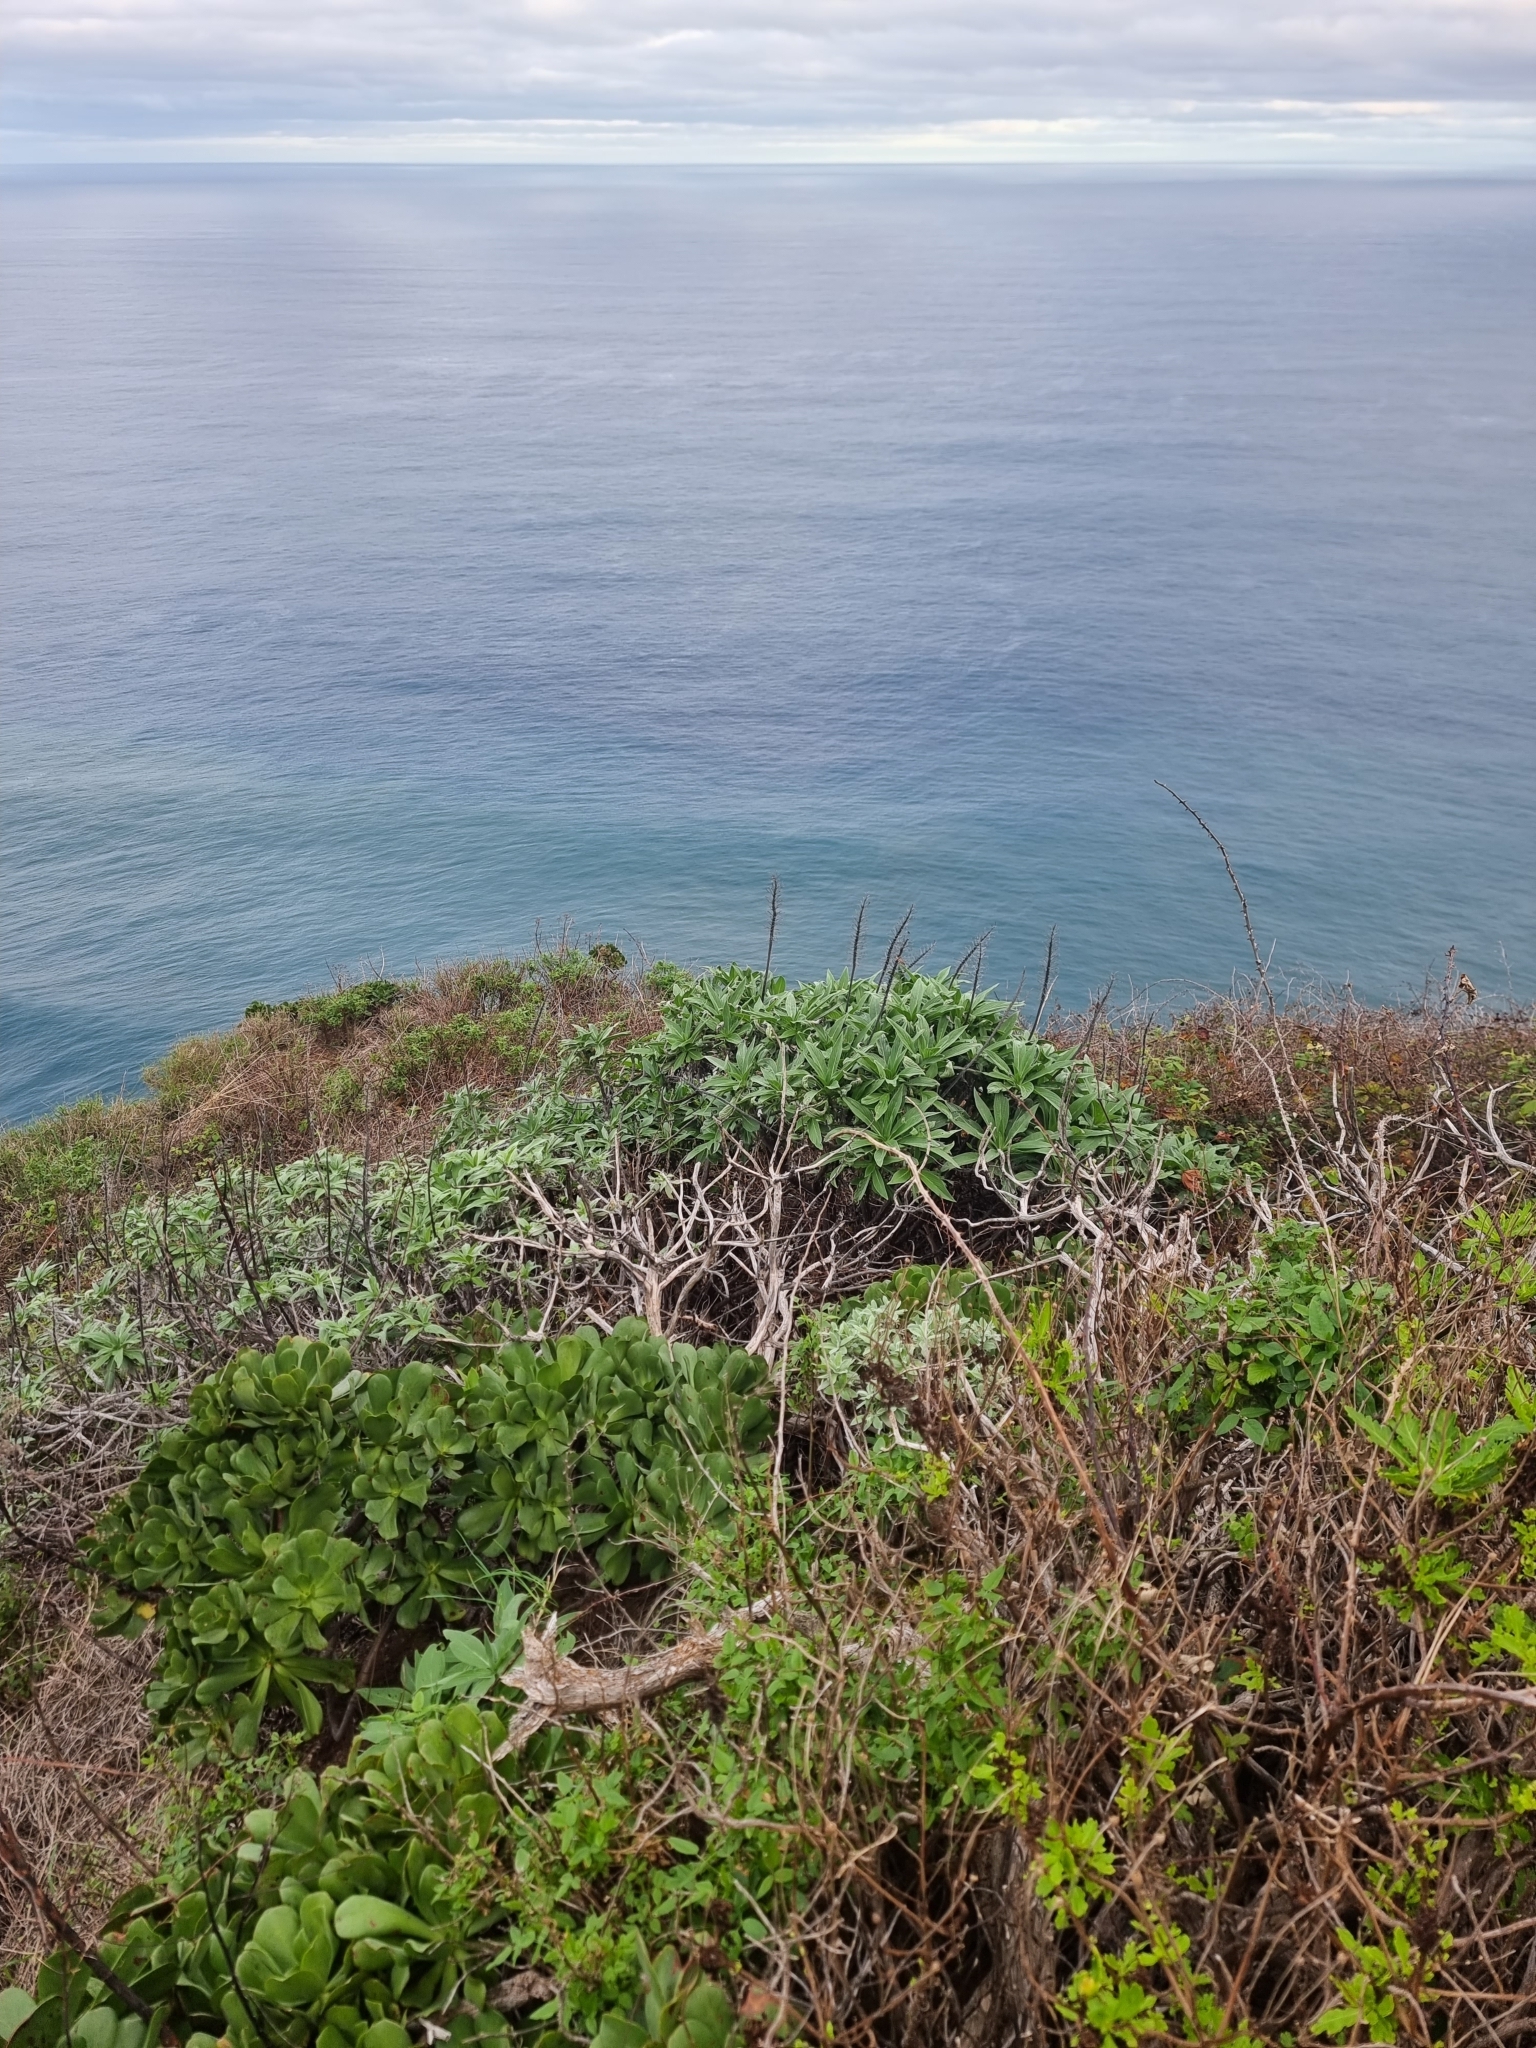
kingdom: Plantae
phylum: Tracheophyta
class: Magnoliopsida
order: Boraginales
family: Boraginaceae
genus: Echium
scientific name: Echium nervosum
